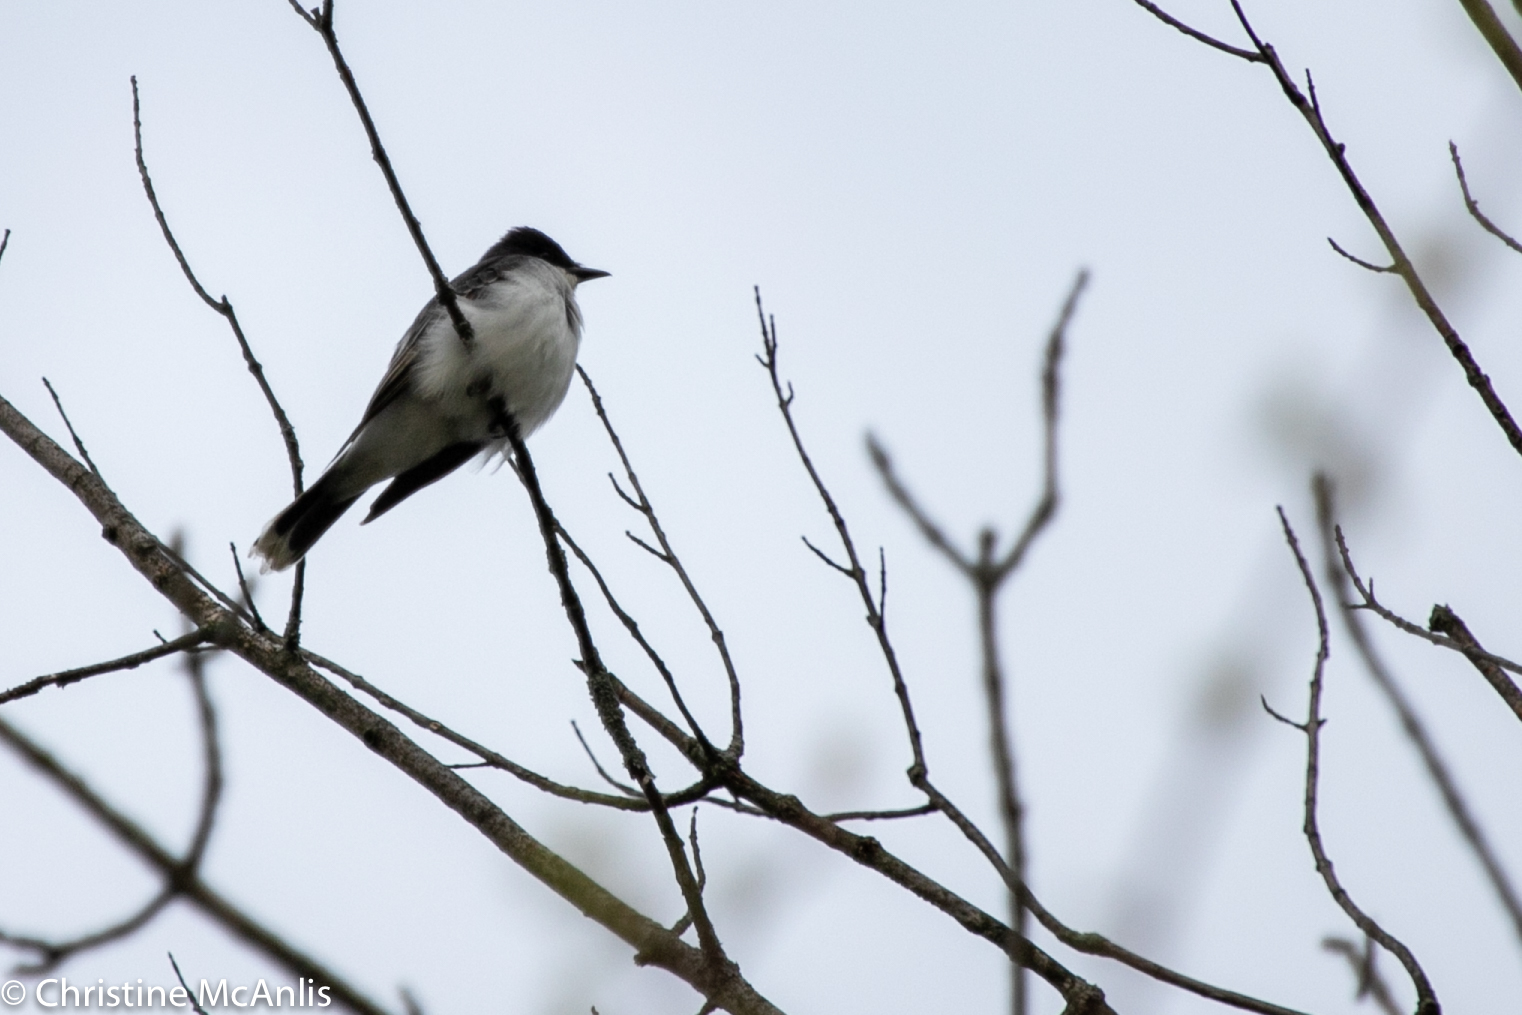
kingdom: Animalia
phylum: Chordata
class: Aves
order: Passeriformes
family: Tyrannidae
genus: Tyrannus
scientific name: Tyrannus tyrannus
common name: Eastern kingbird
